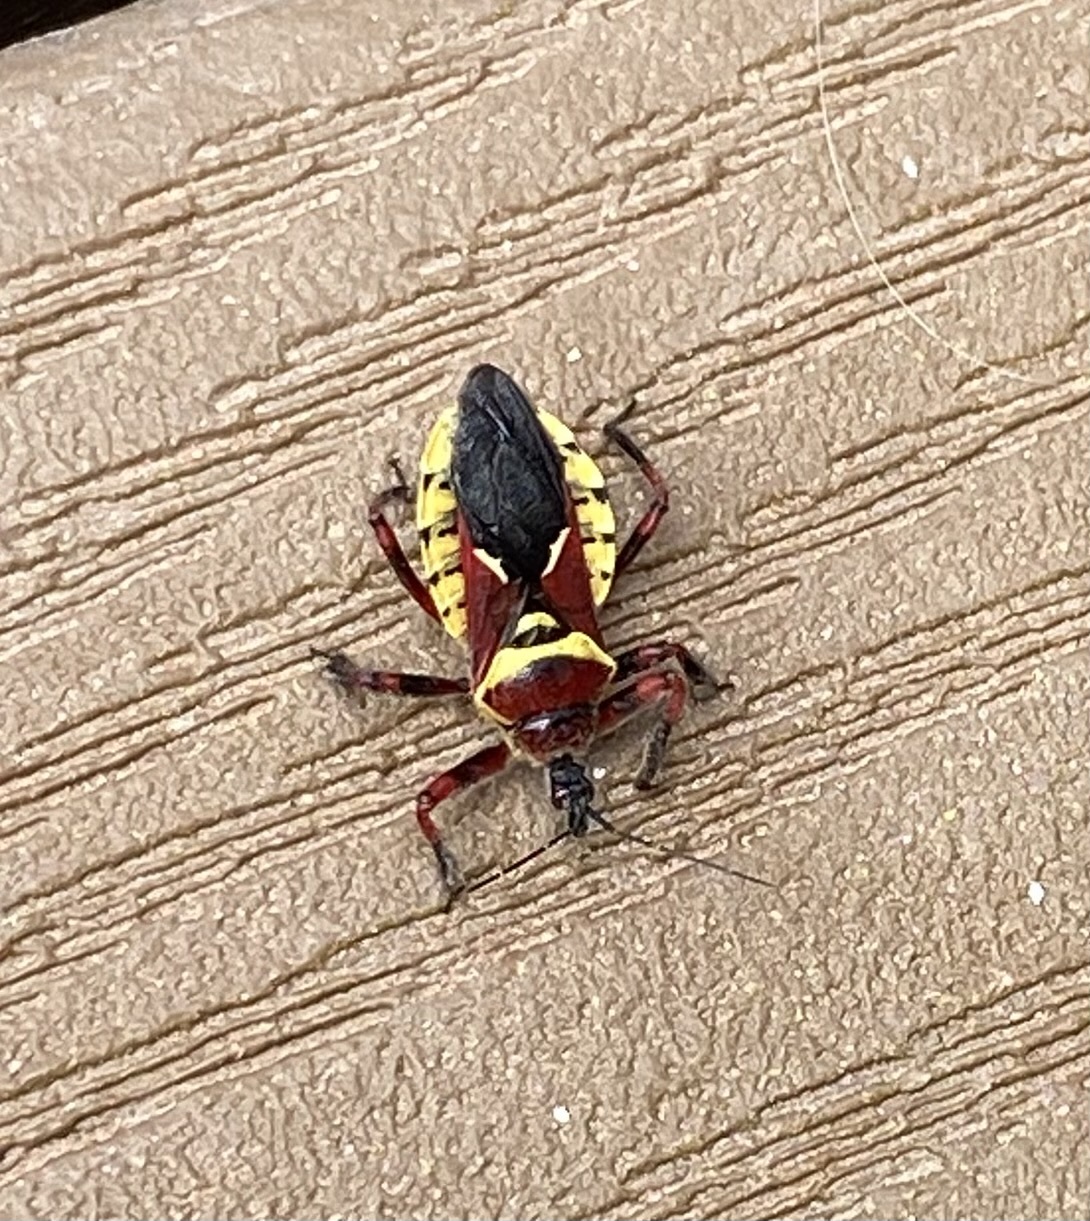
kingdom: Animalia
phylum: Arthropoda
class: Insecta
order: Hemiptera
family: Reduviidae
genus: Apiomerus
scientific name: Apiomerus flaviventris
